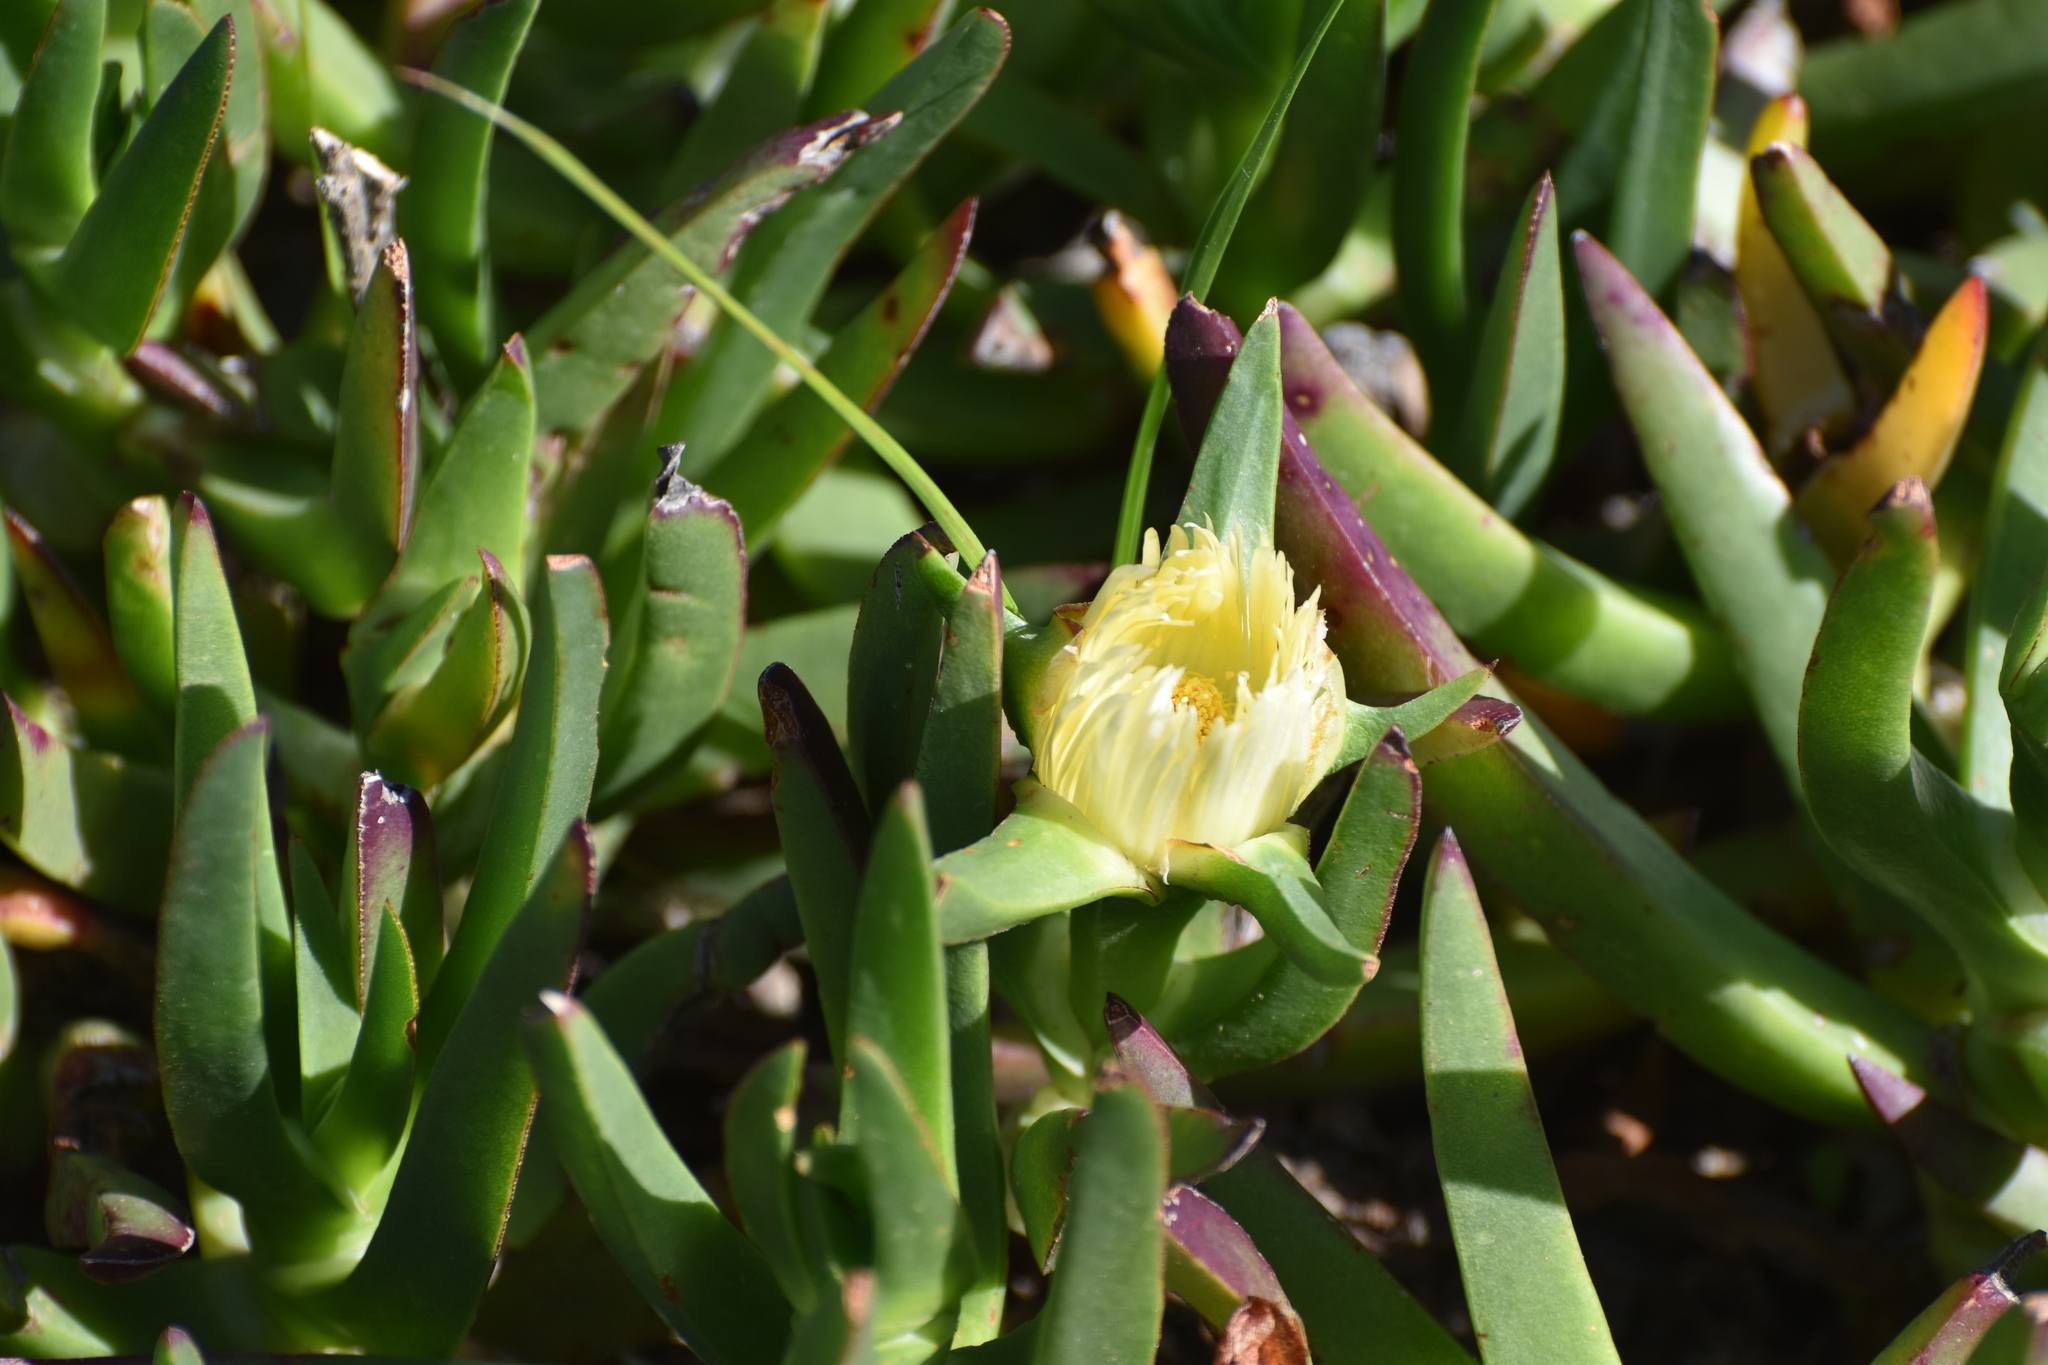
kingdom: Plantae
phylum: Tracheophyta
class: Magnoliopsida
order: Caryophyllales
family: Aizoaceae
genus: Carpobrotus
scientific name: Carpobrotus edulis
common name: Hottentot-fig
